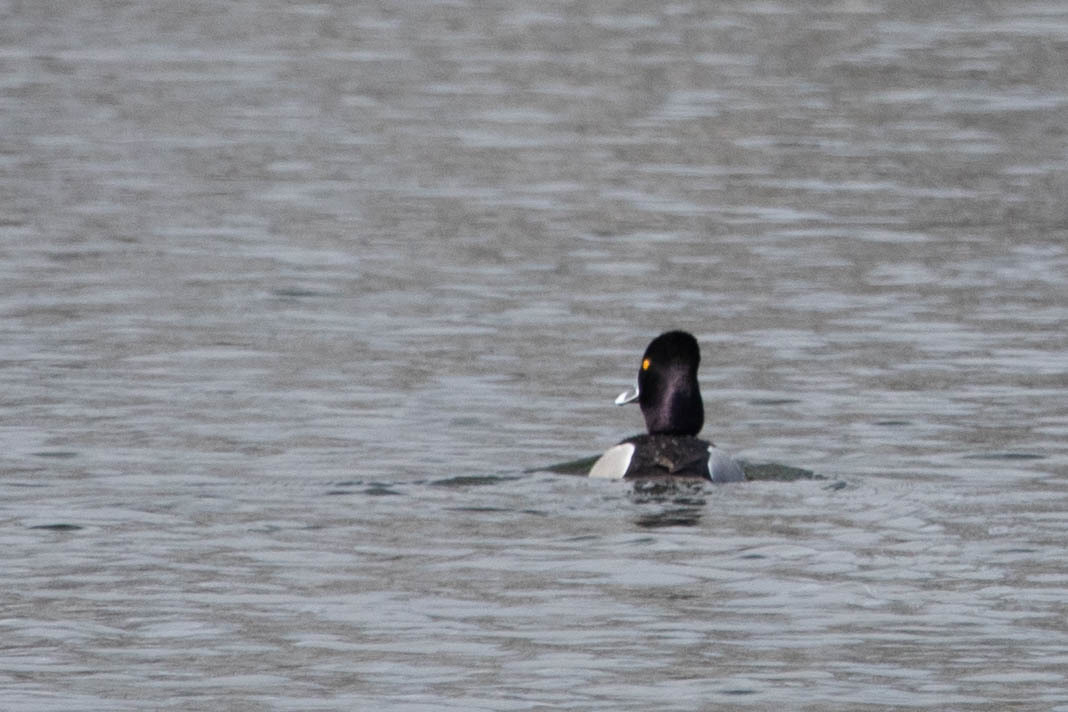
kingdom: Animalia
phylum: Chordata
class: Aves
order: Anseriformes
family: Anatidae
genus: Aythya
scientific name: Aythya collaris
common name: Ring-necked duck
